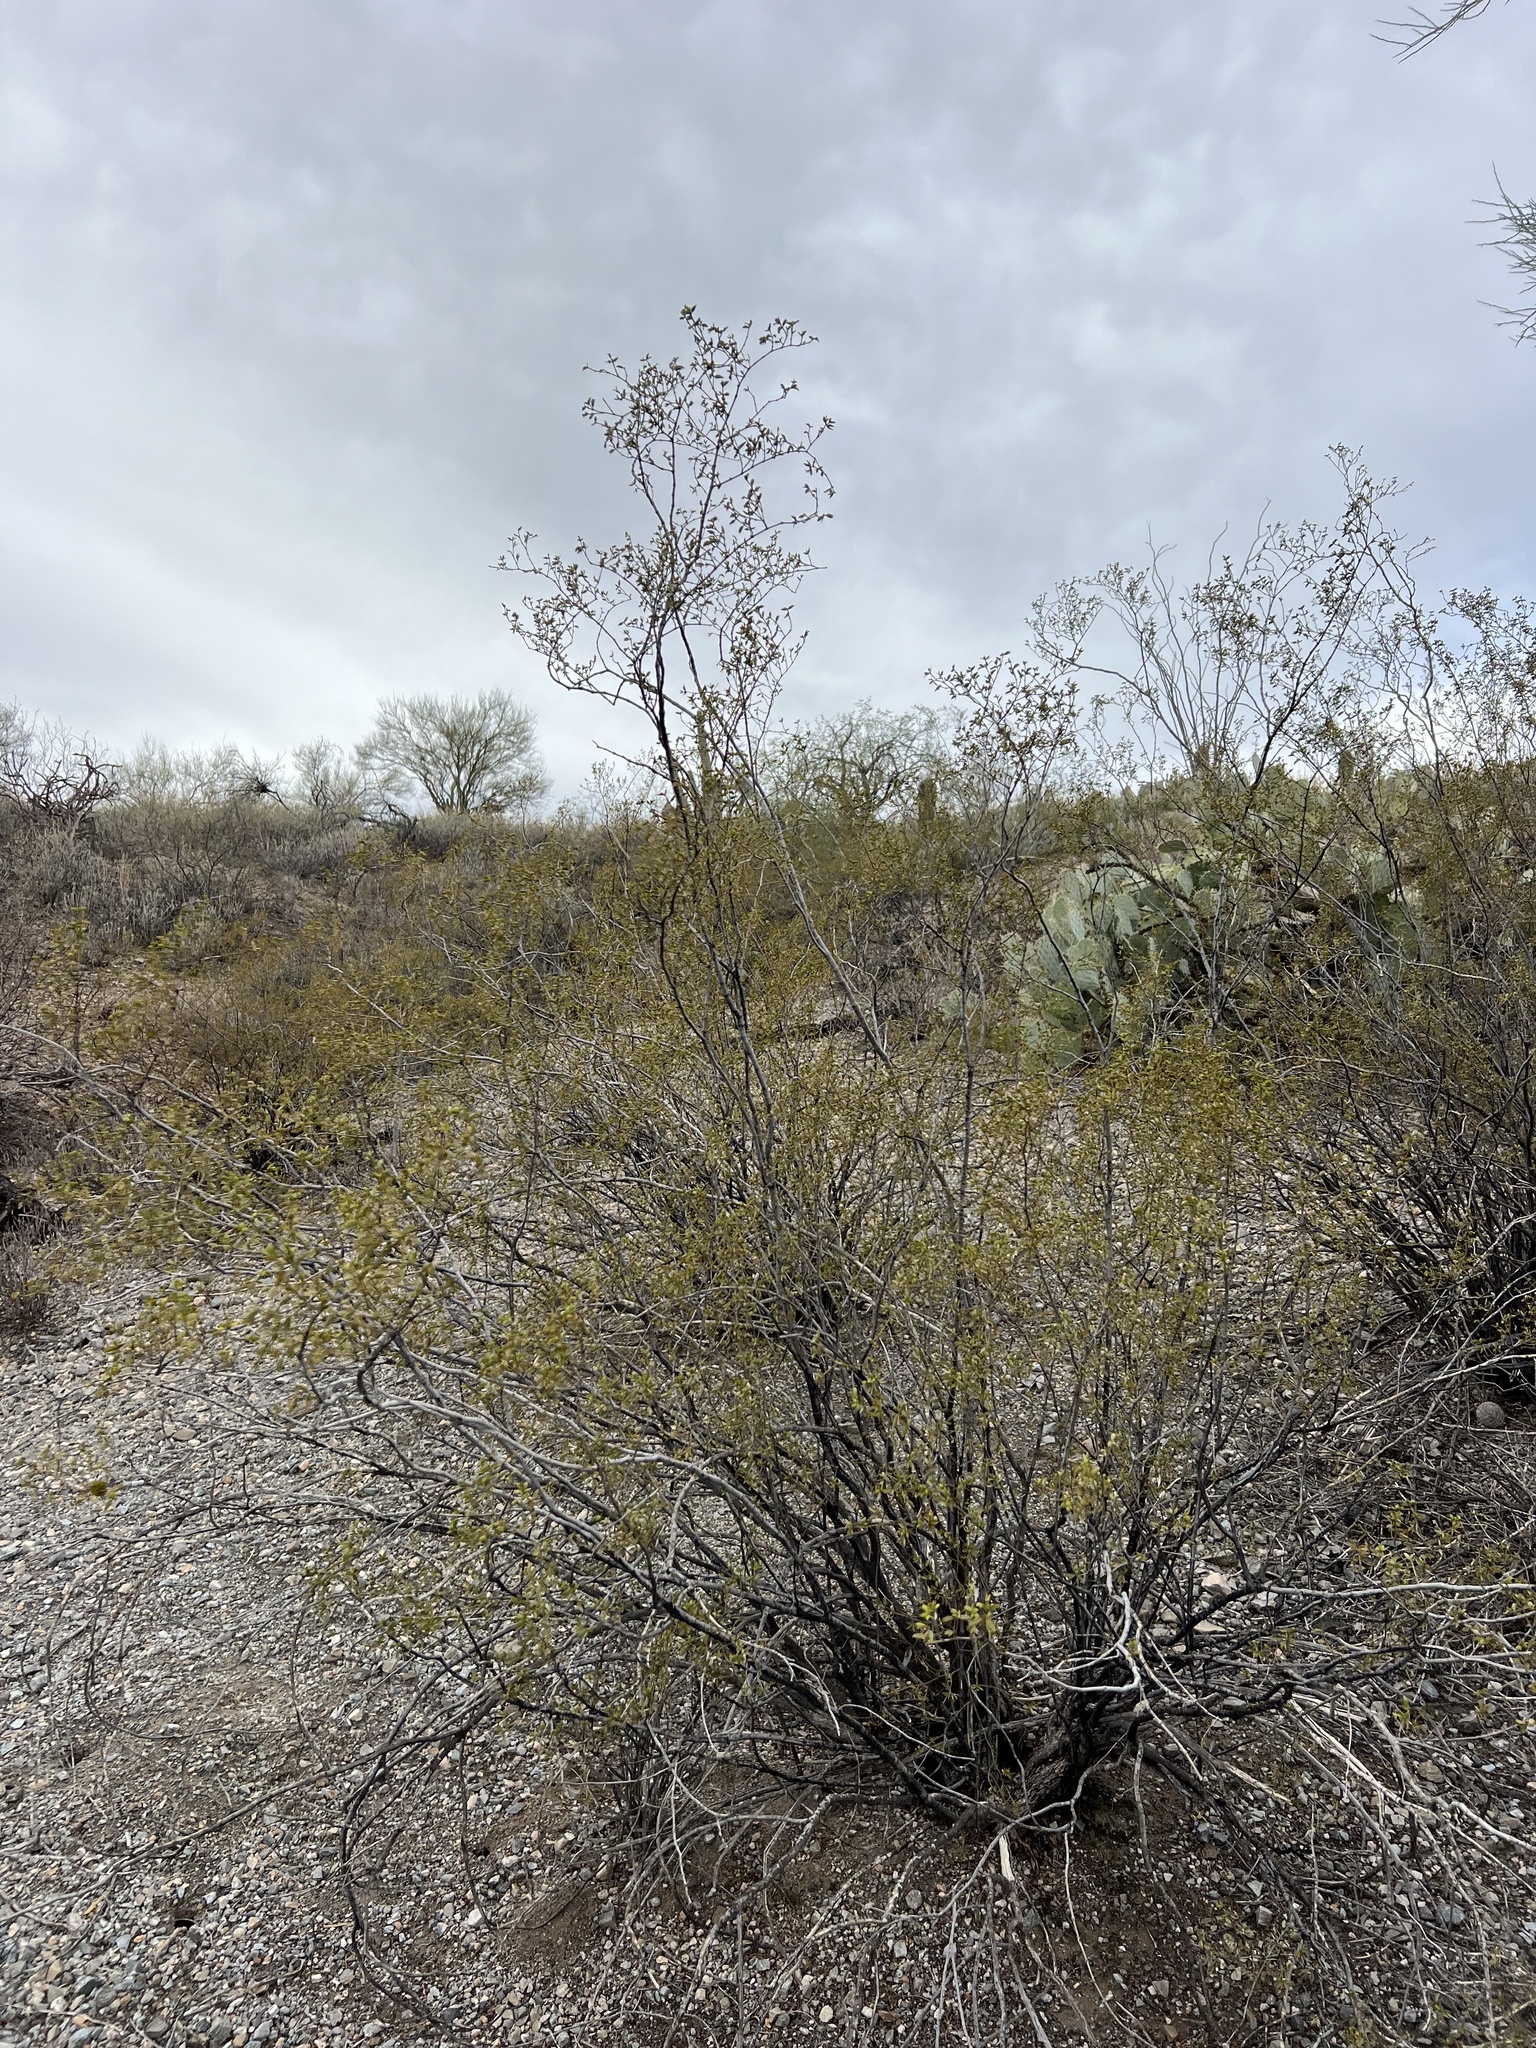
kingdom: Plantae
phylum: Tracheophyta
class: Magnoliopsida
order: Zygophyllales
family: Zygophyllaceae
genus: Larrea
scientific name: Larrea tridentata
